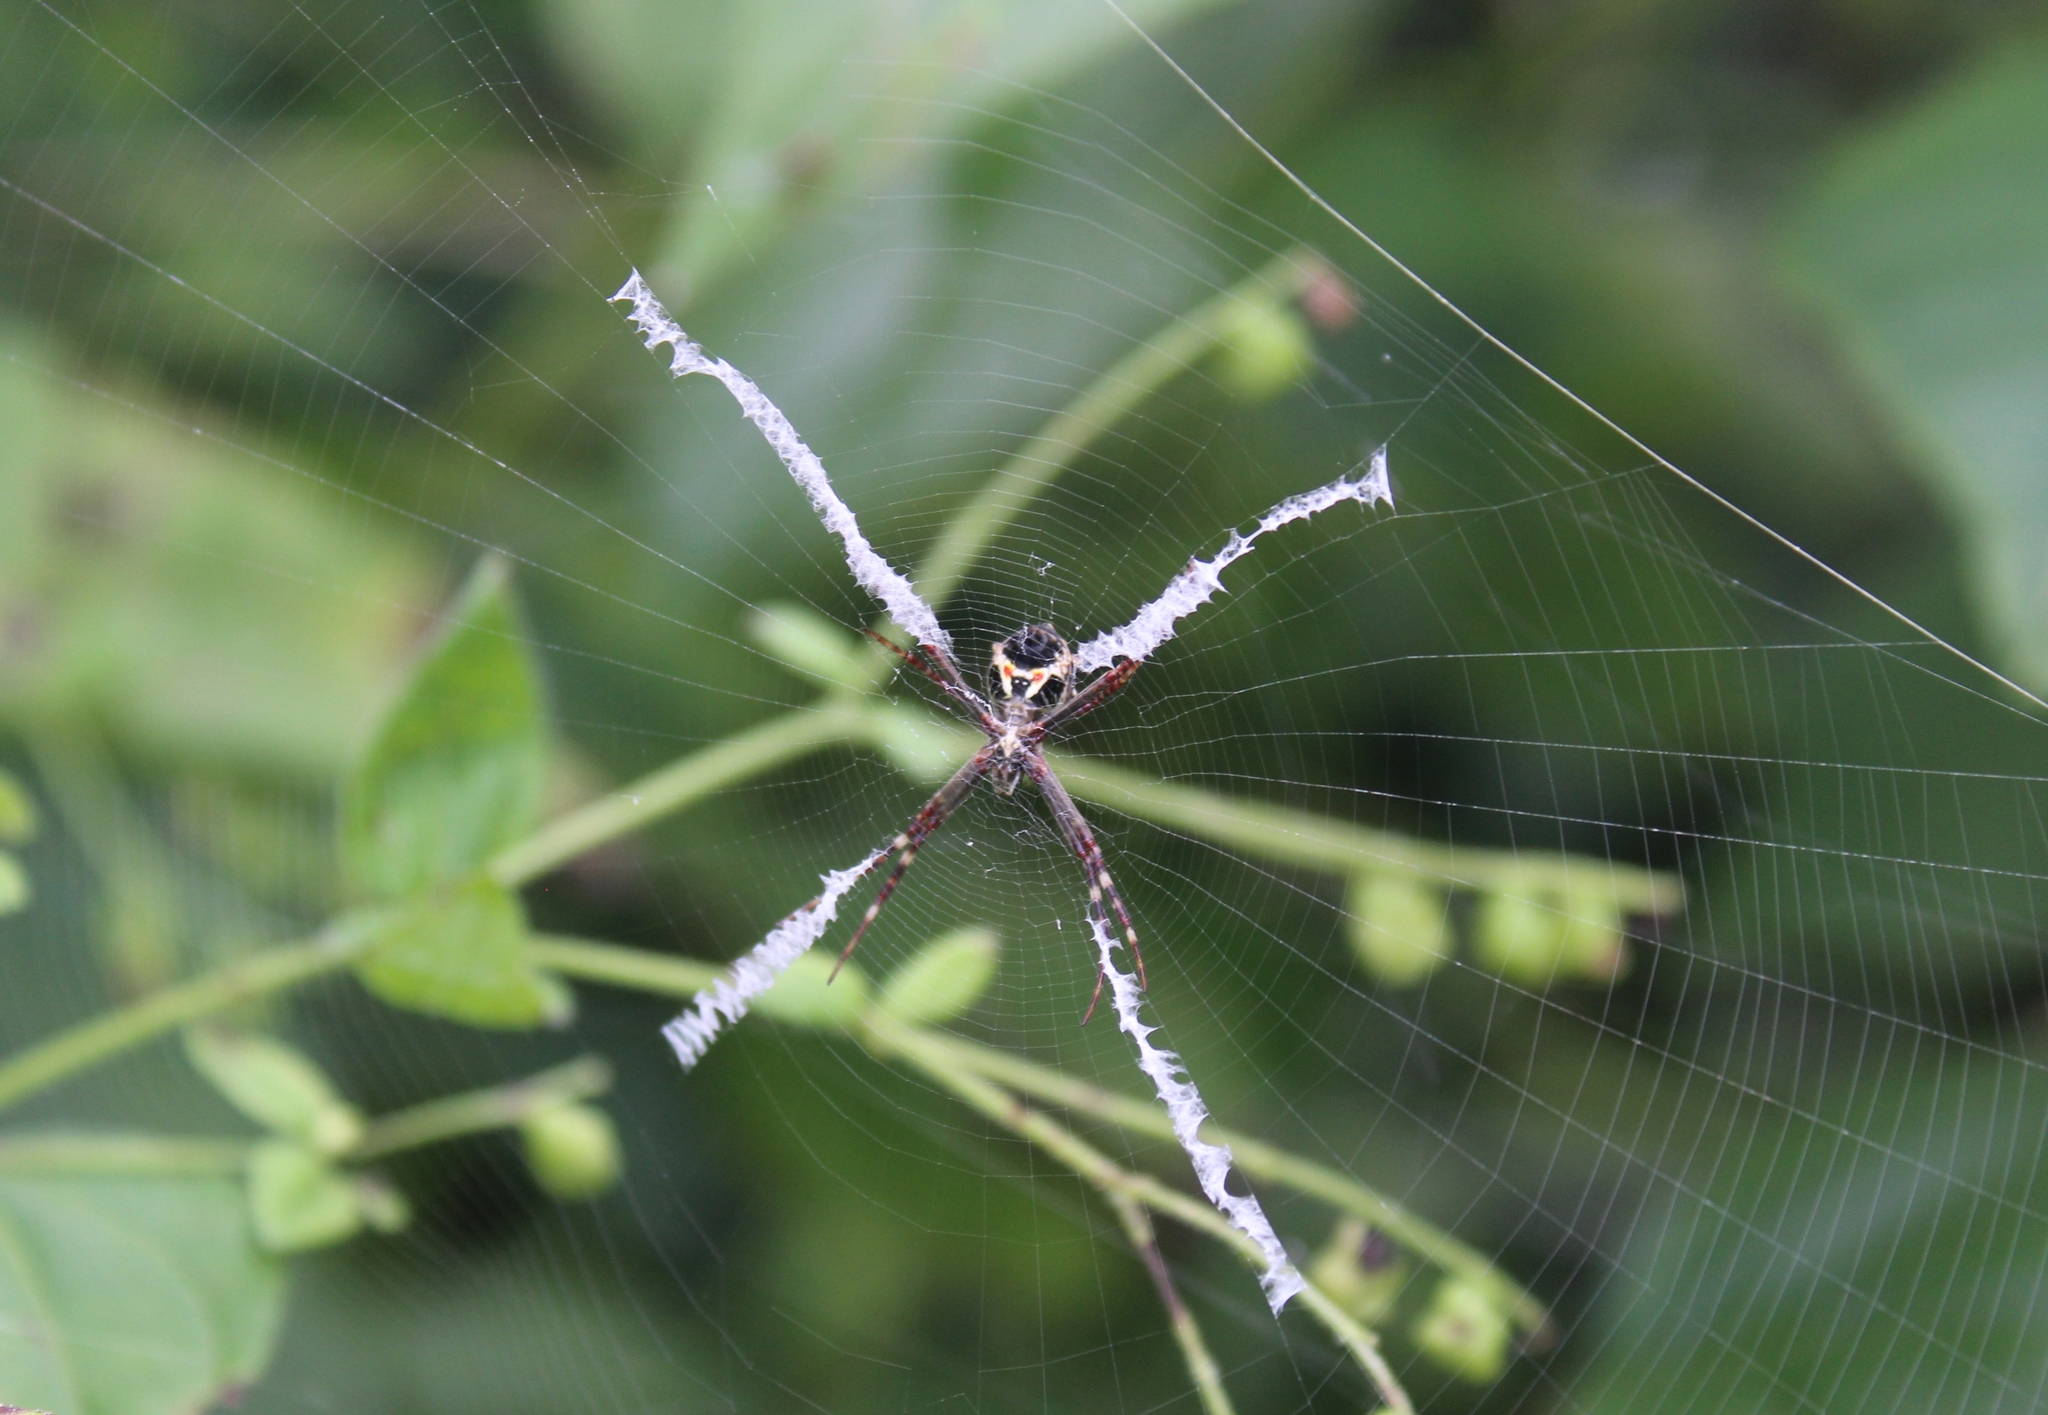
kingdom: Animalia
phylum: Arthropoda
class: Arachnida
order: Araneae
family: Araneidae
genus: Argiope
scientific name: Argiope argentata
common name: Orb weavers
